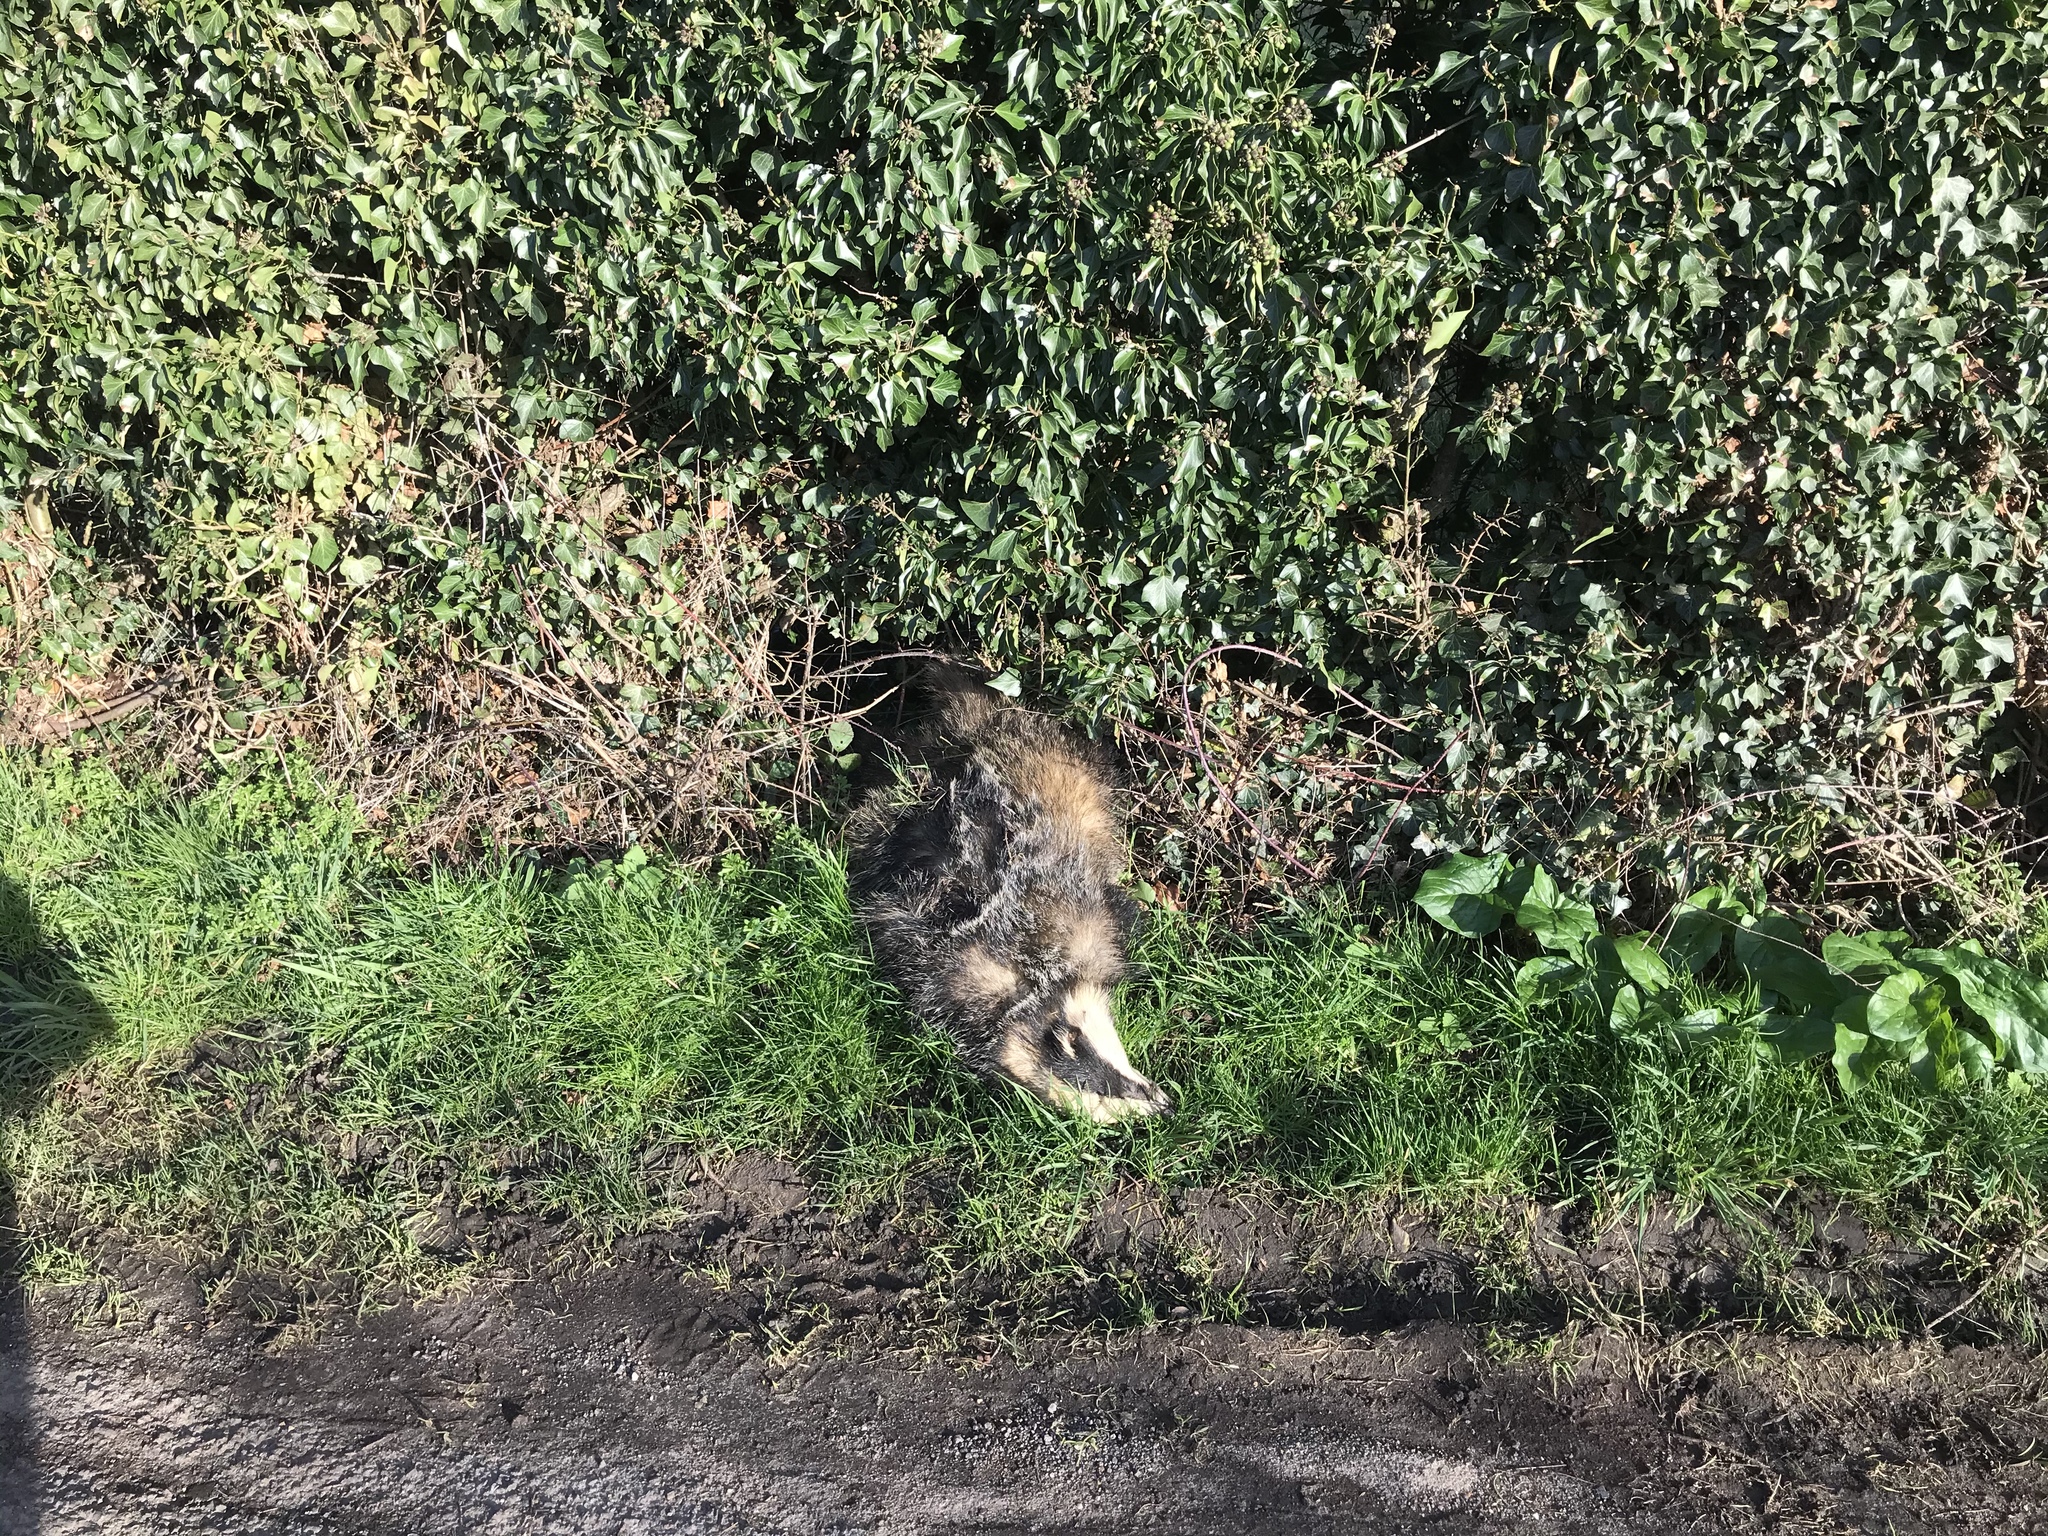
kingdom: Animalia
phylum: Chordata
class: Mammalia
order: Carnivora
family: Mustelidae
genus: Meles
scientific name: Meles meles
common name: Eurasian badger
